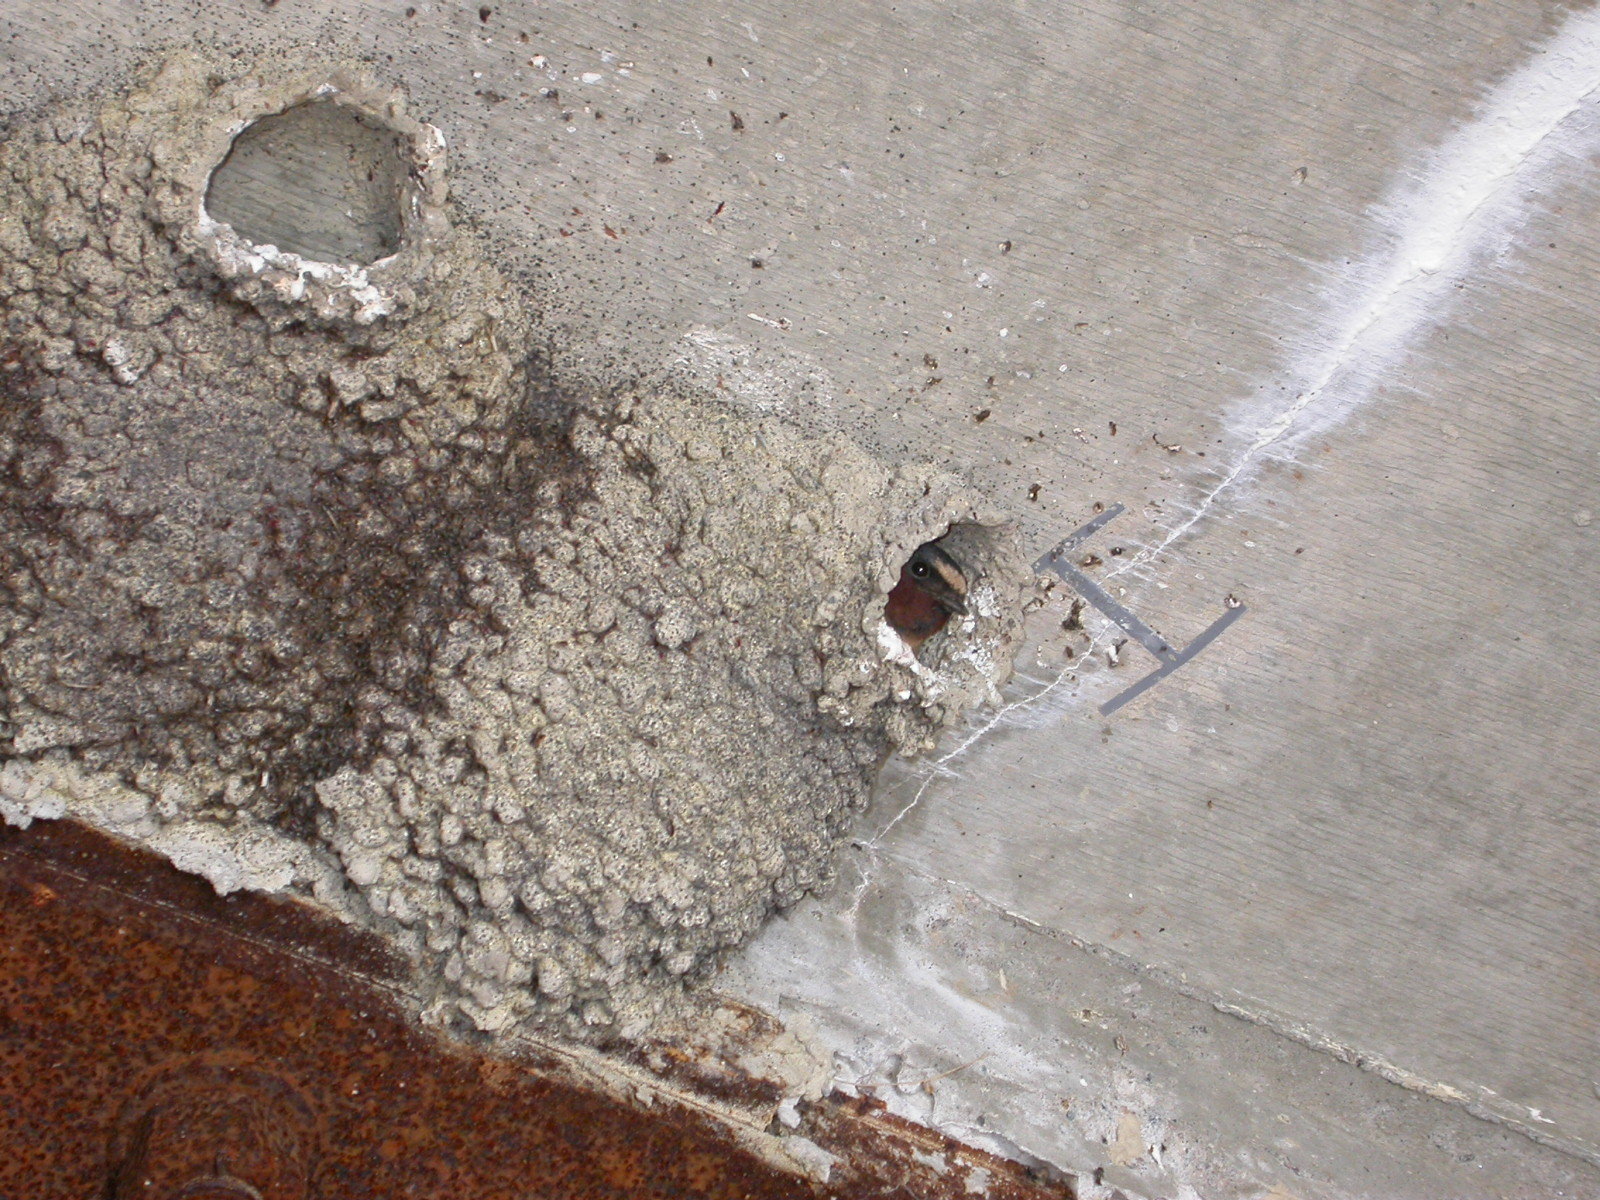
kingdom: Animalia
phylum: Chordata
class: Aves
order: Passeriformes
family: Hirundinidae
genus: Petrochelidon
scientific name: Petrochelidon pyrrhonota
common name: American cliff swallow
